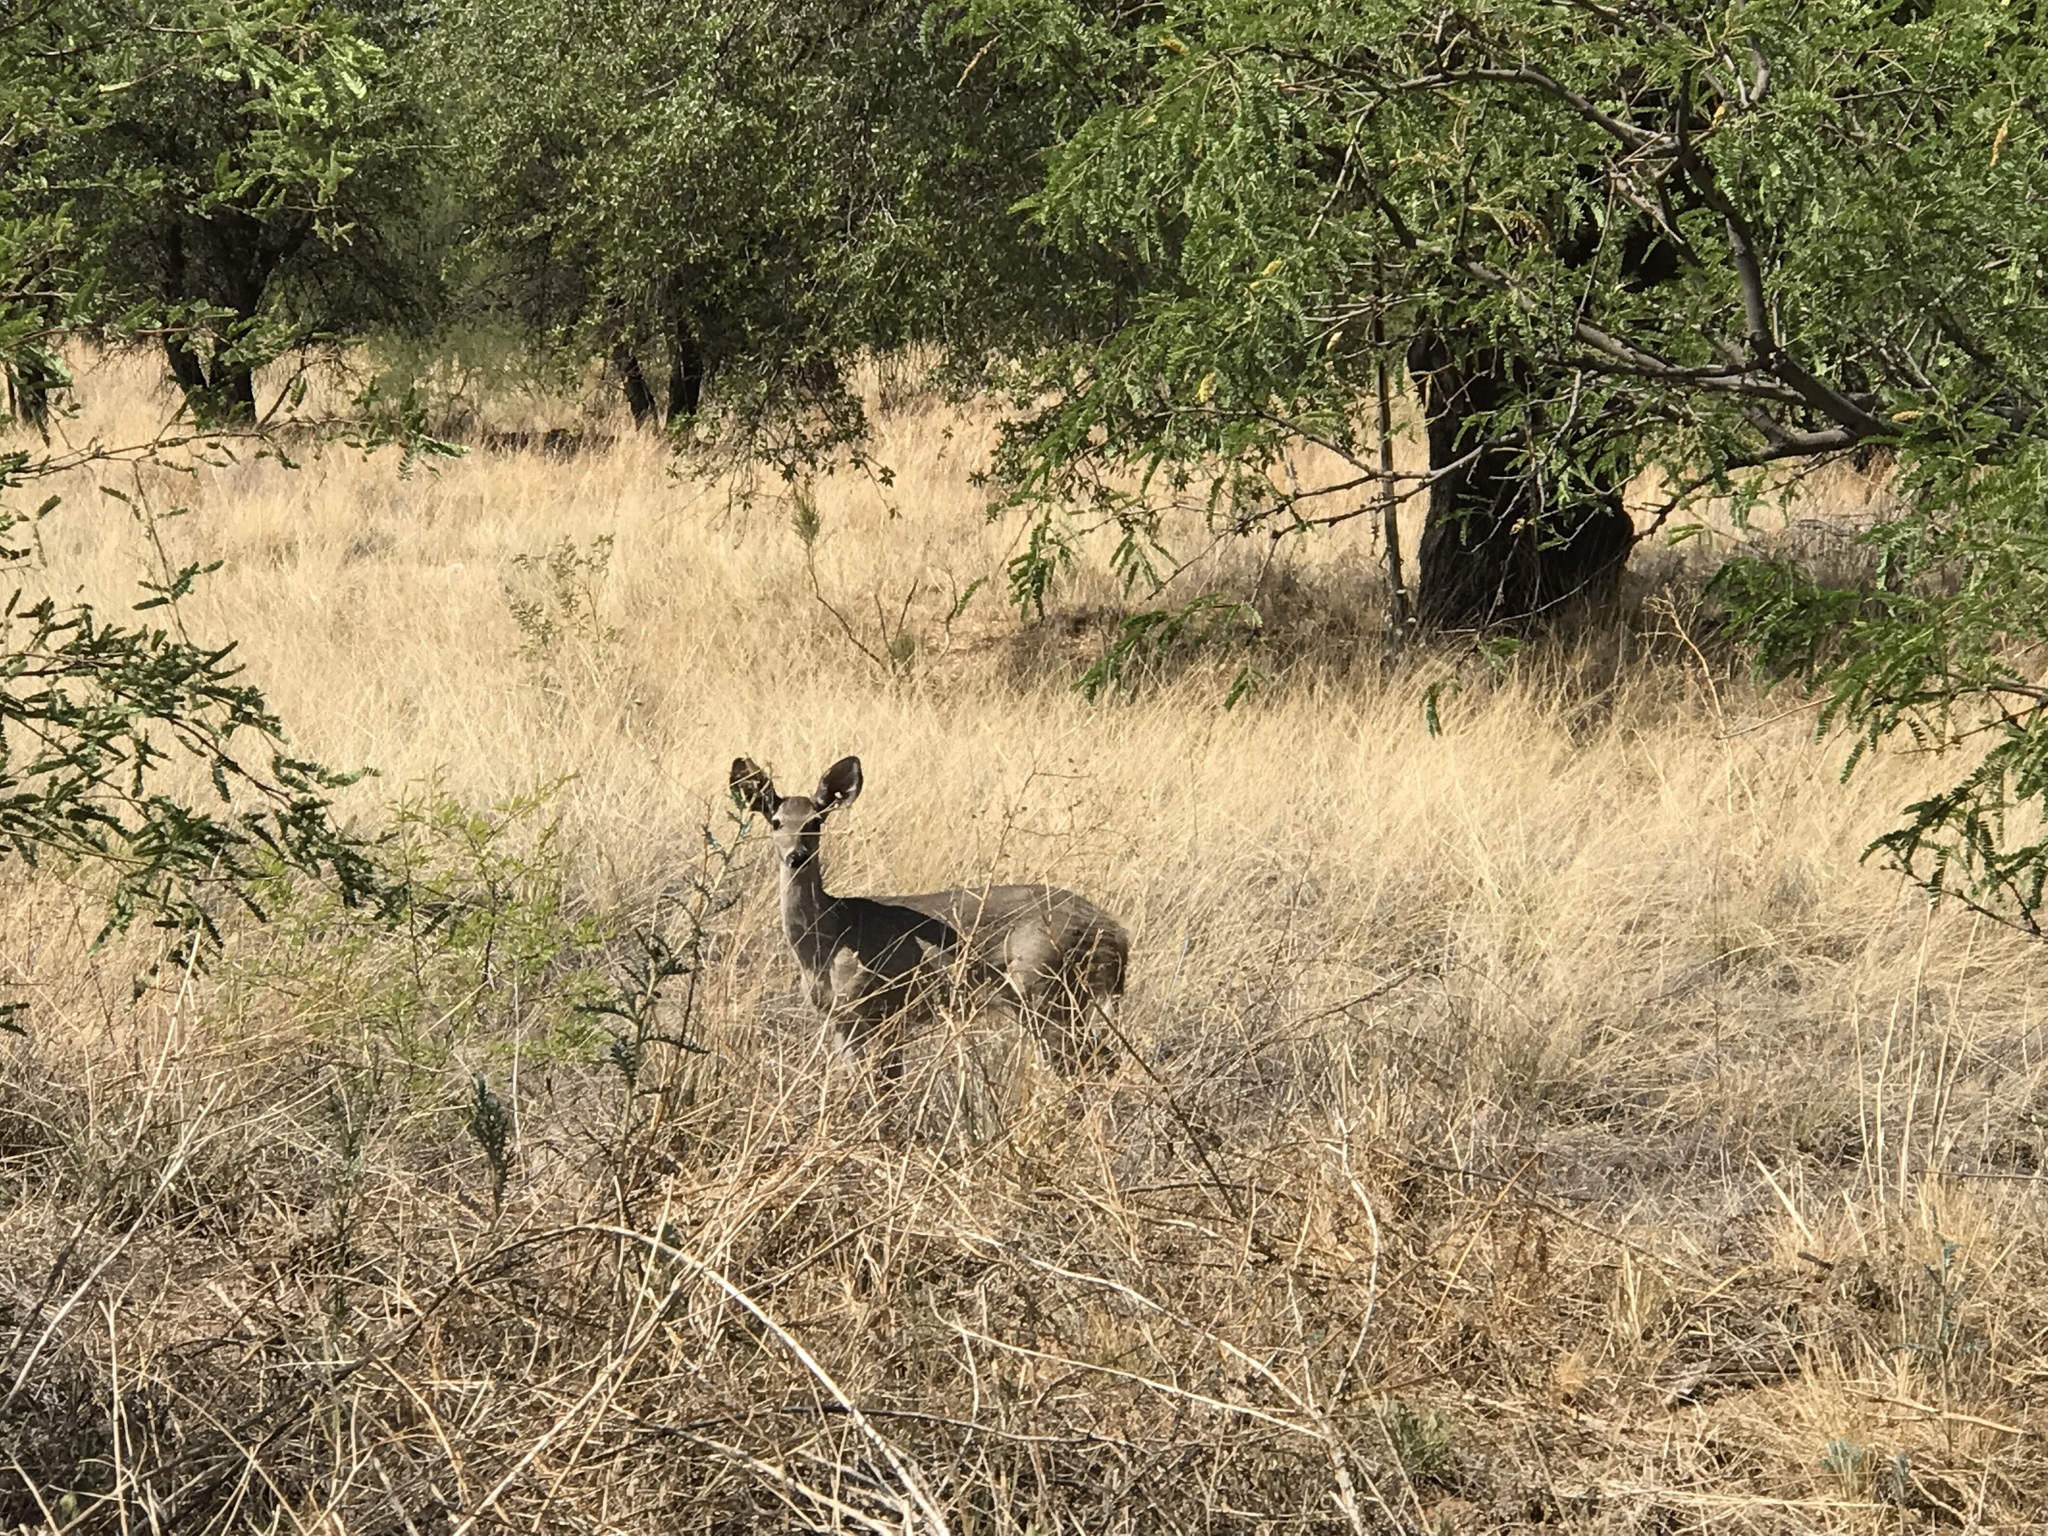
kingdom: Animalia
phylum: Chordata
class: Mammalia
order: Artiodactyla
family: Cervidae
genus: Odocoileus
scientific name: Odocoileus virginianus
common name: White-tailed deer
